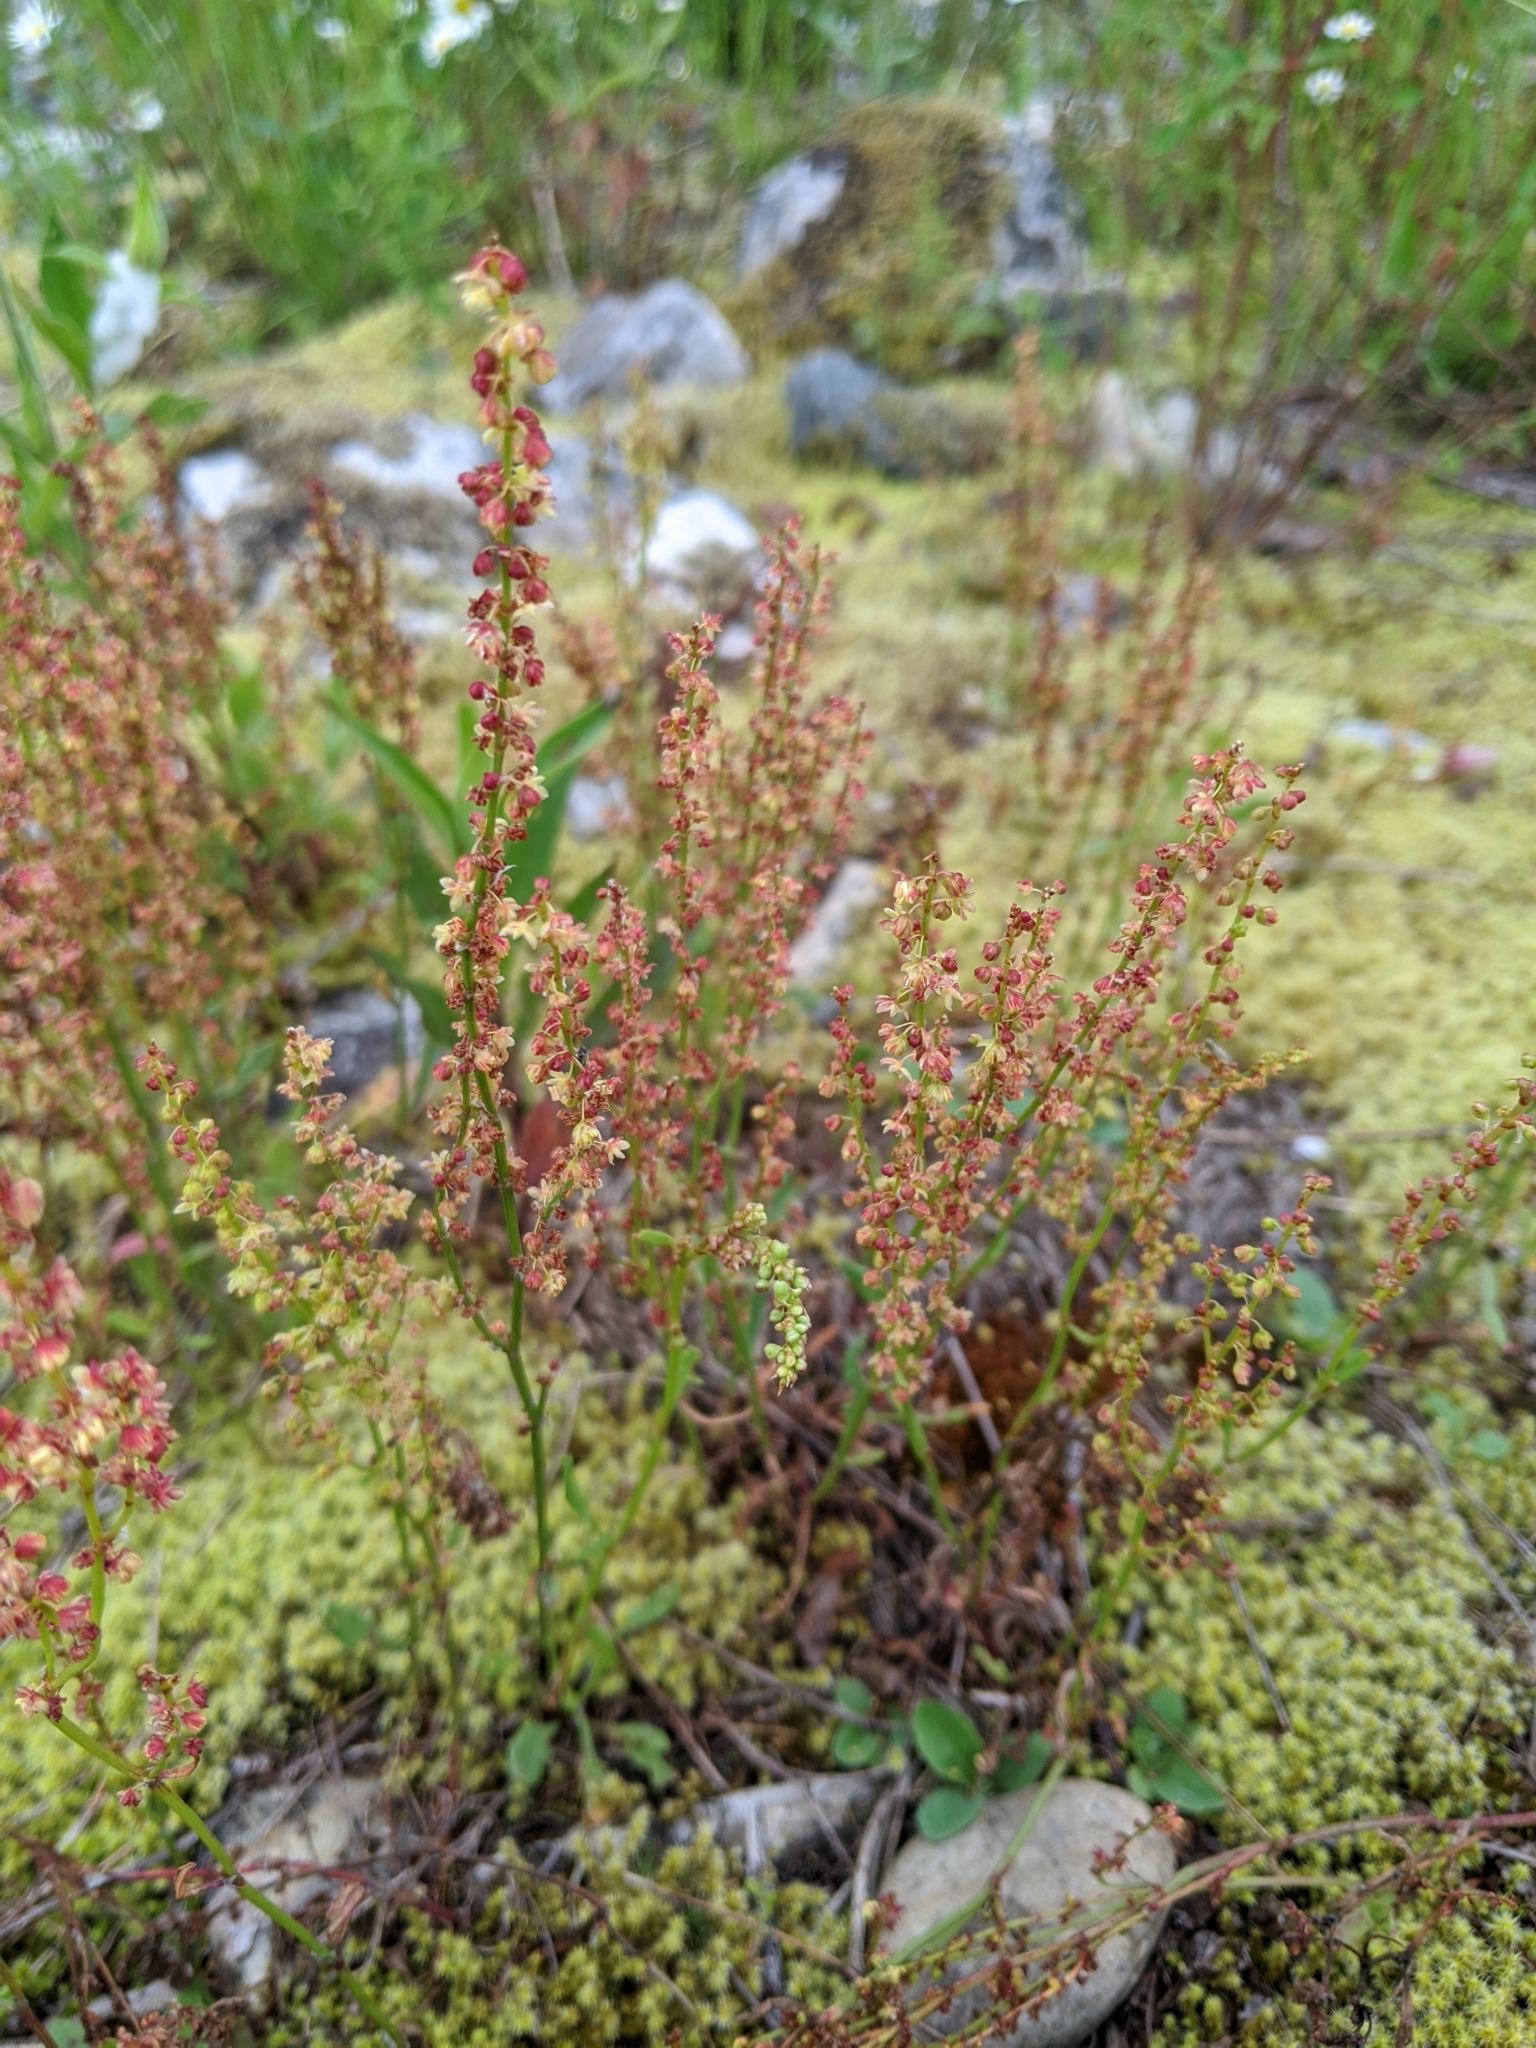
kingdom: Plantae
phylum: Tracheophyta
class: Magnoliopsida
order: Caryophyllales
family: Polygonaceae
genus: Rumex
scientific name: Rumex acetosella
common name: Common sheep sorrel
